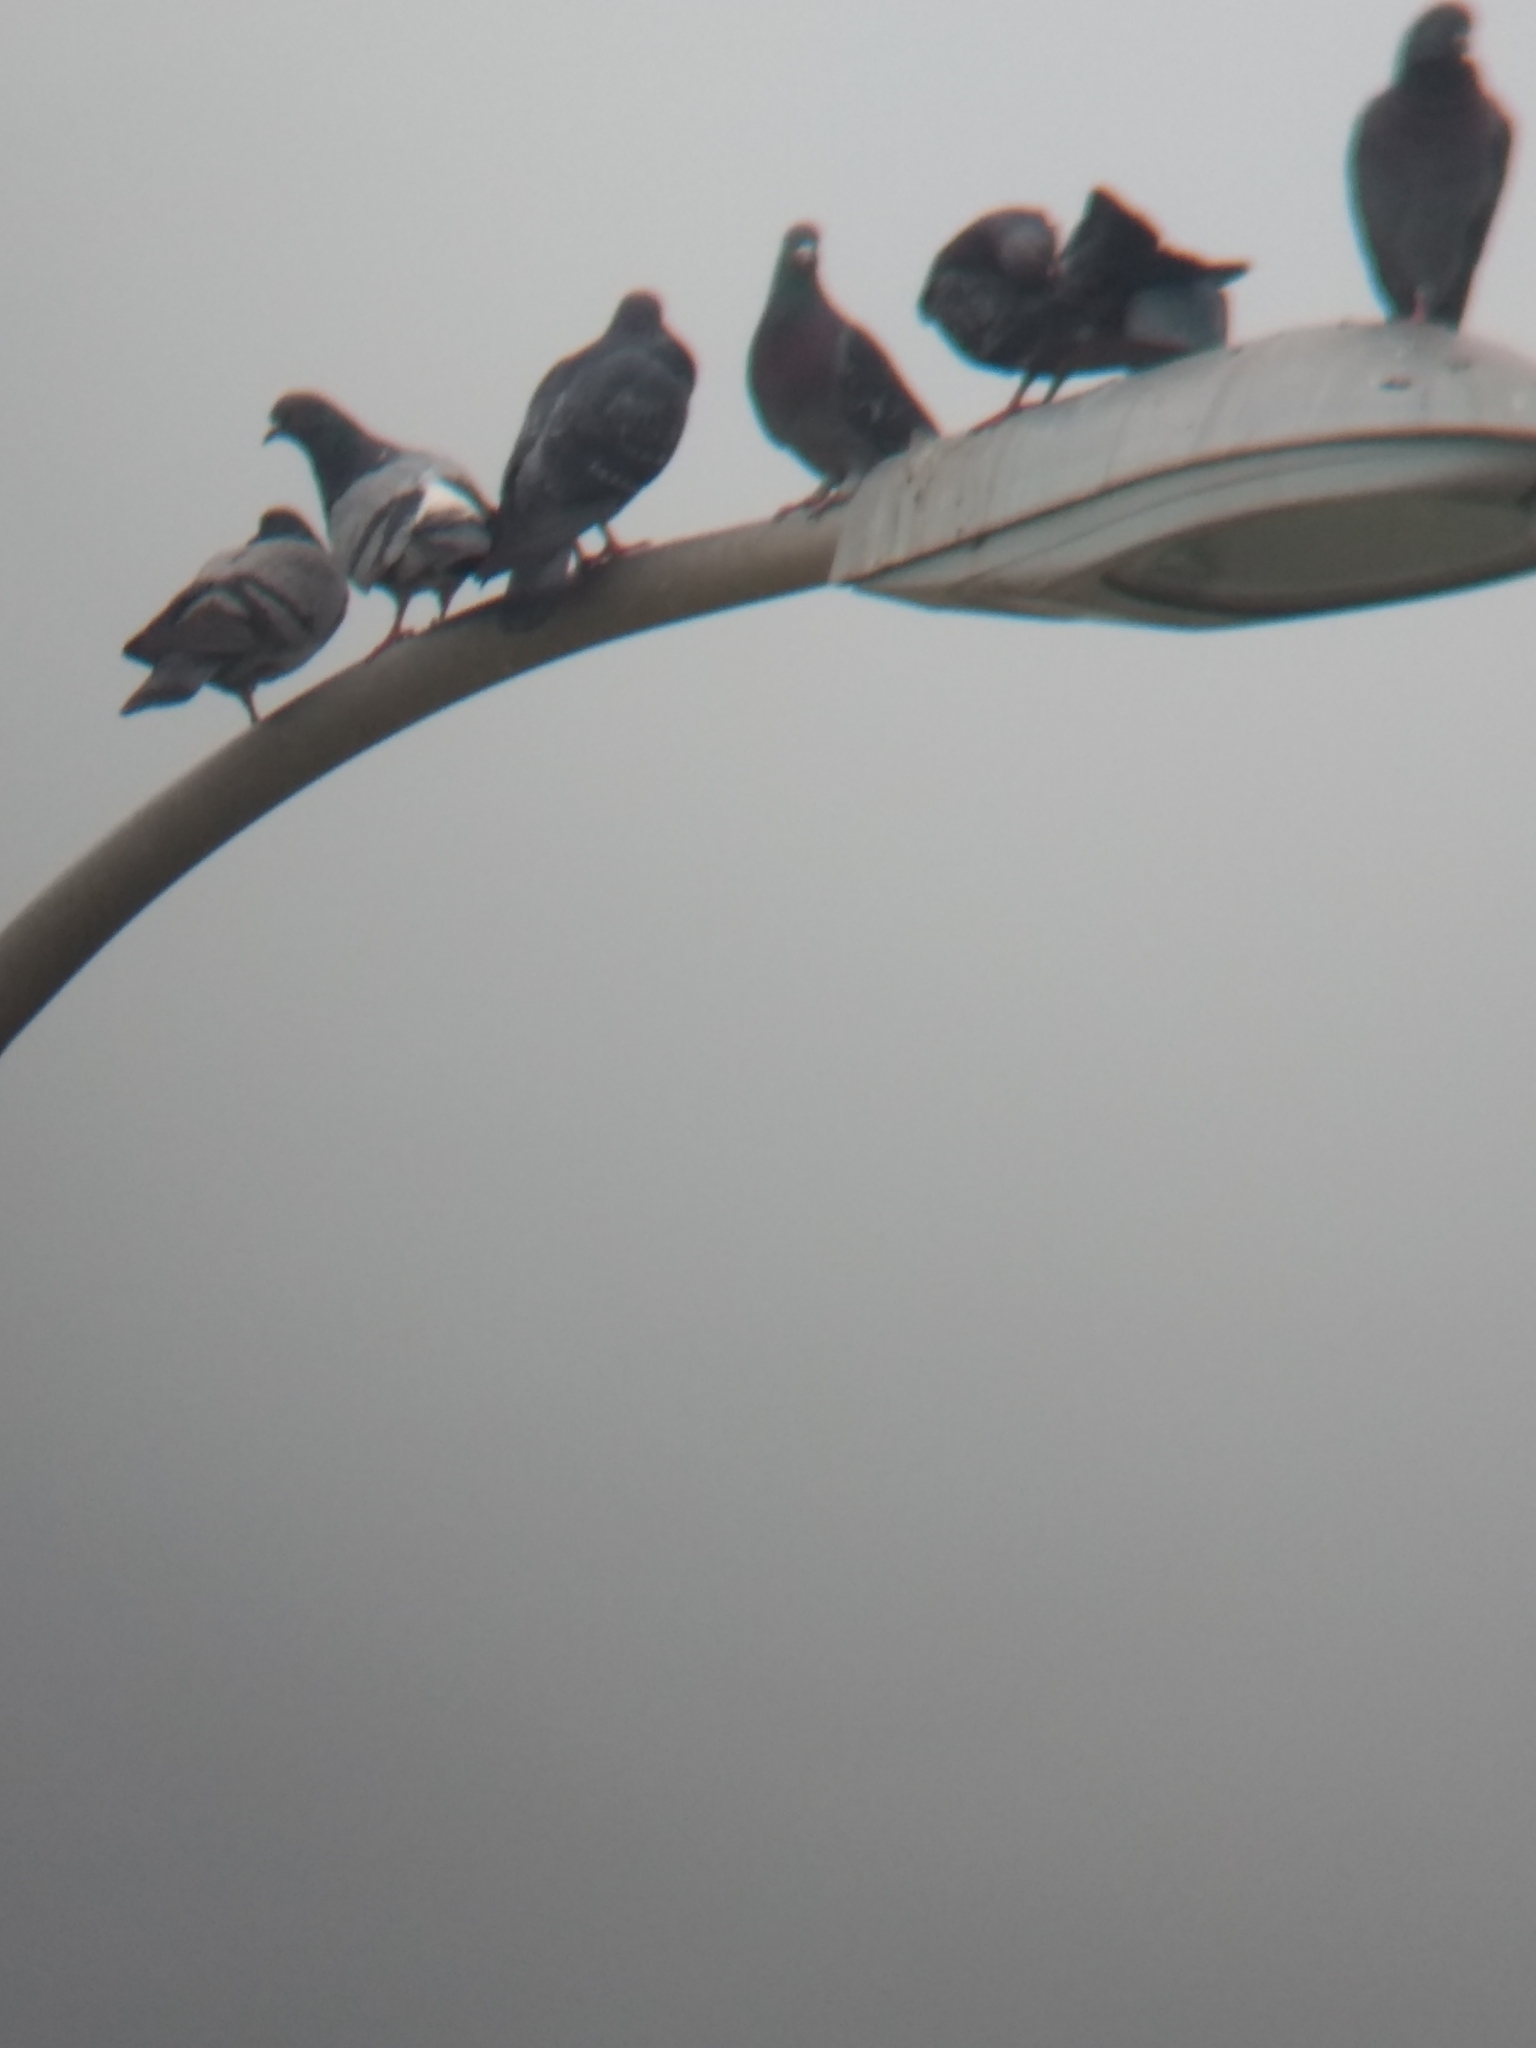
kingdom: Animalia
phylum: Chordata
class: Aves
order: Columbiformes
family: Columbidae
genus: Columba
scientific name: Columba livia
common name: Rock pigeon
